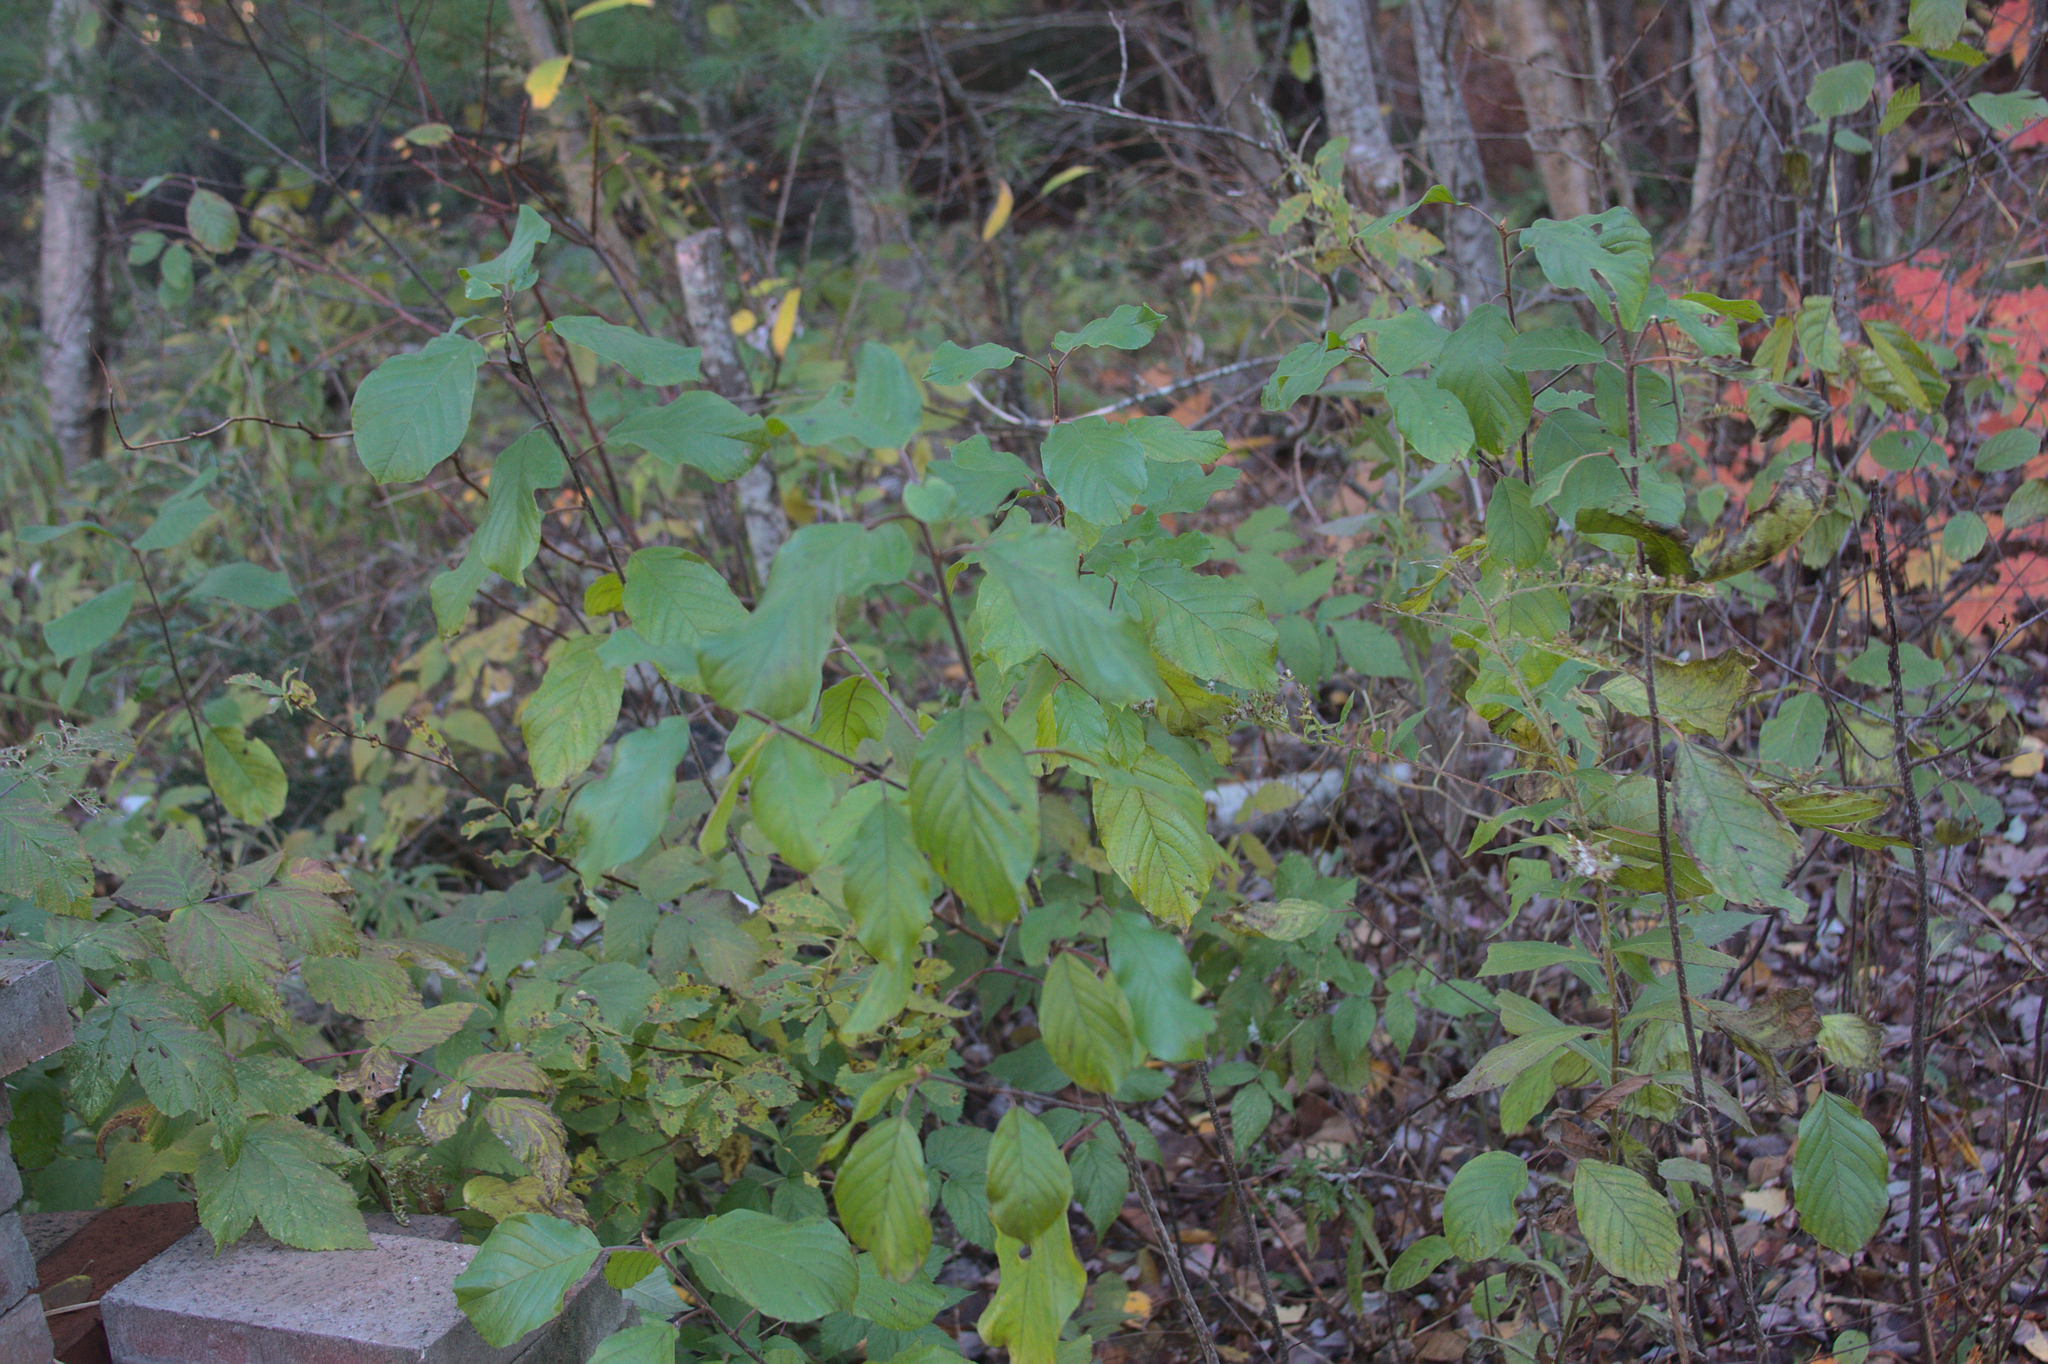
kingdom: Plantae
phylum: Tracheophyta
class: Magnoliopsida
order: Rosales
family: Rhamnaceae
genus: Frangula
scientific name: Frangula alnus
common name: Alder buckthorn
